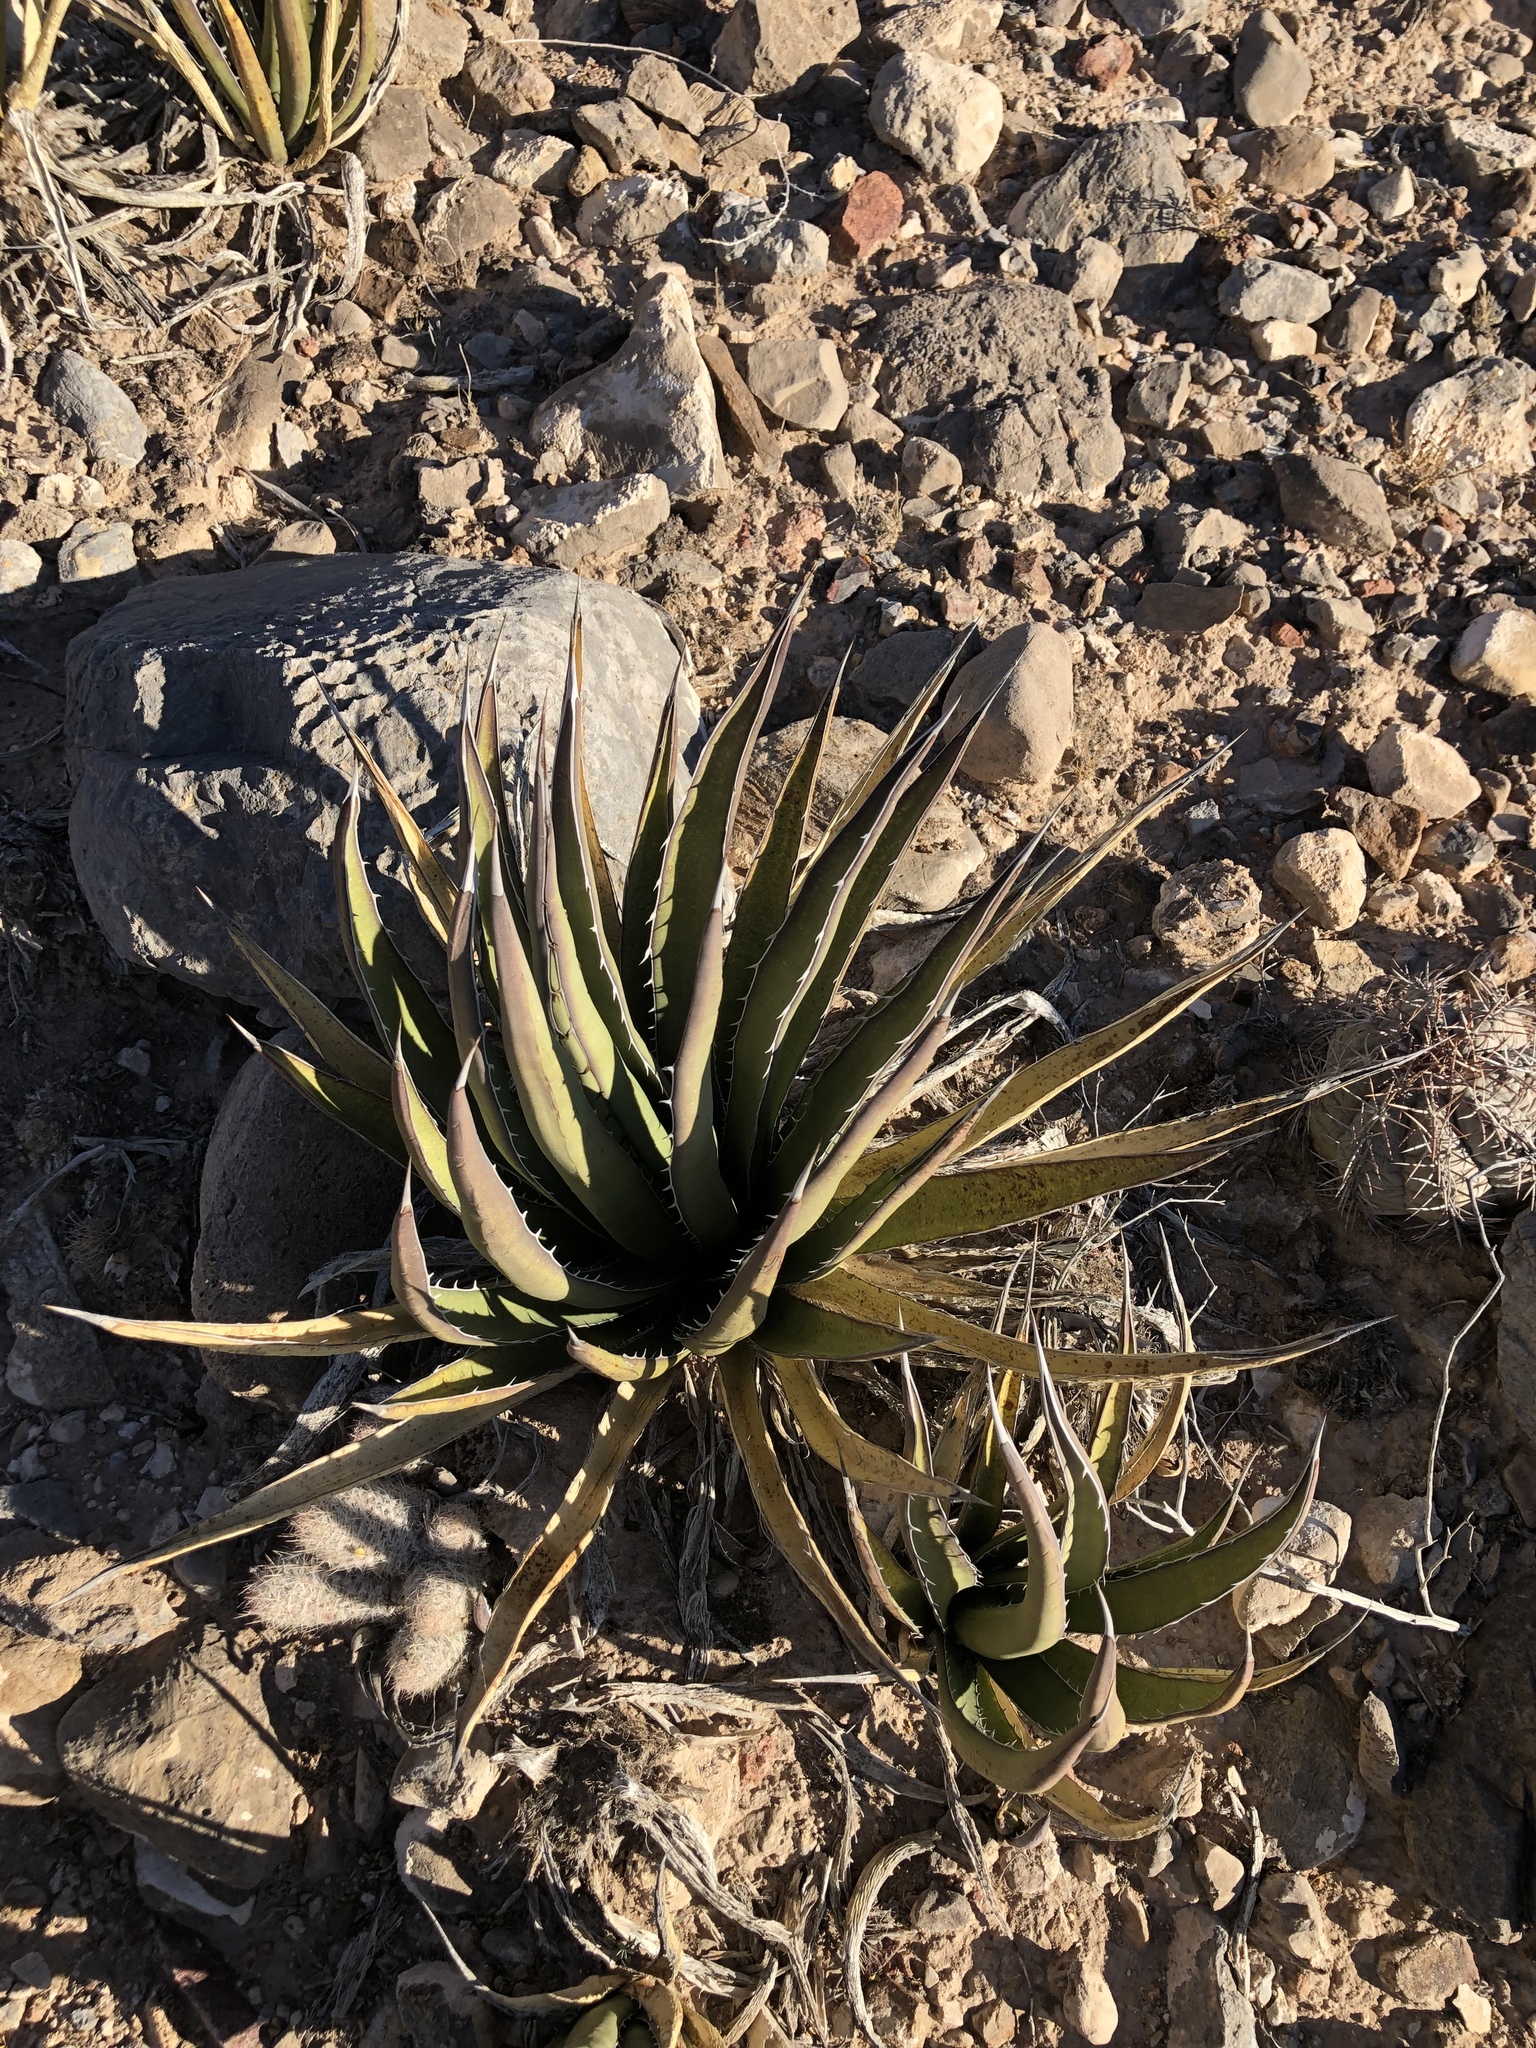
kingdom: Plantae
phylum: Tracheophyta
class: Liliopsida
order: Asparagales
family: Asparagaceae
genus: Agave
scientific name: Agave lechuguilla
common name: Lecheguilla agave
